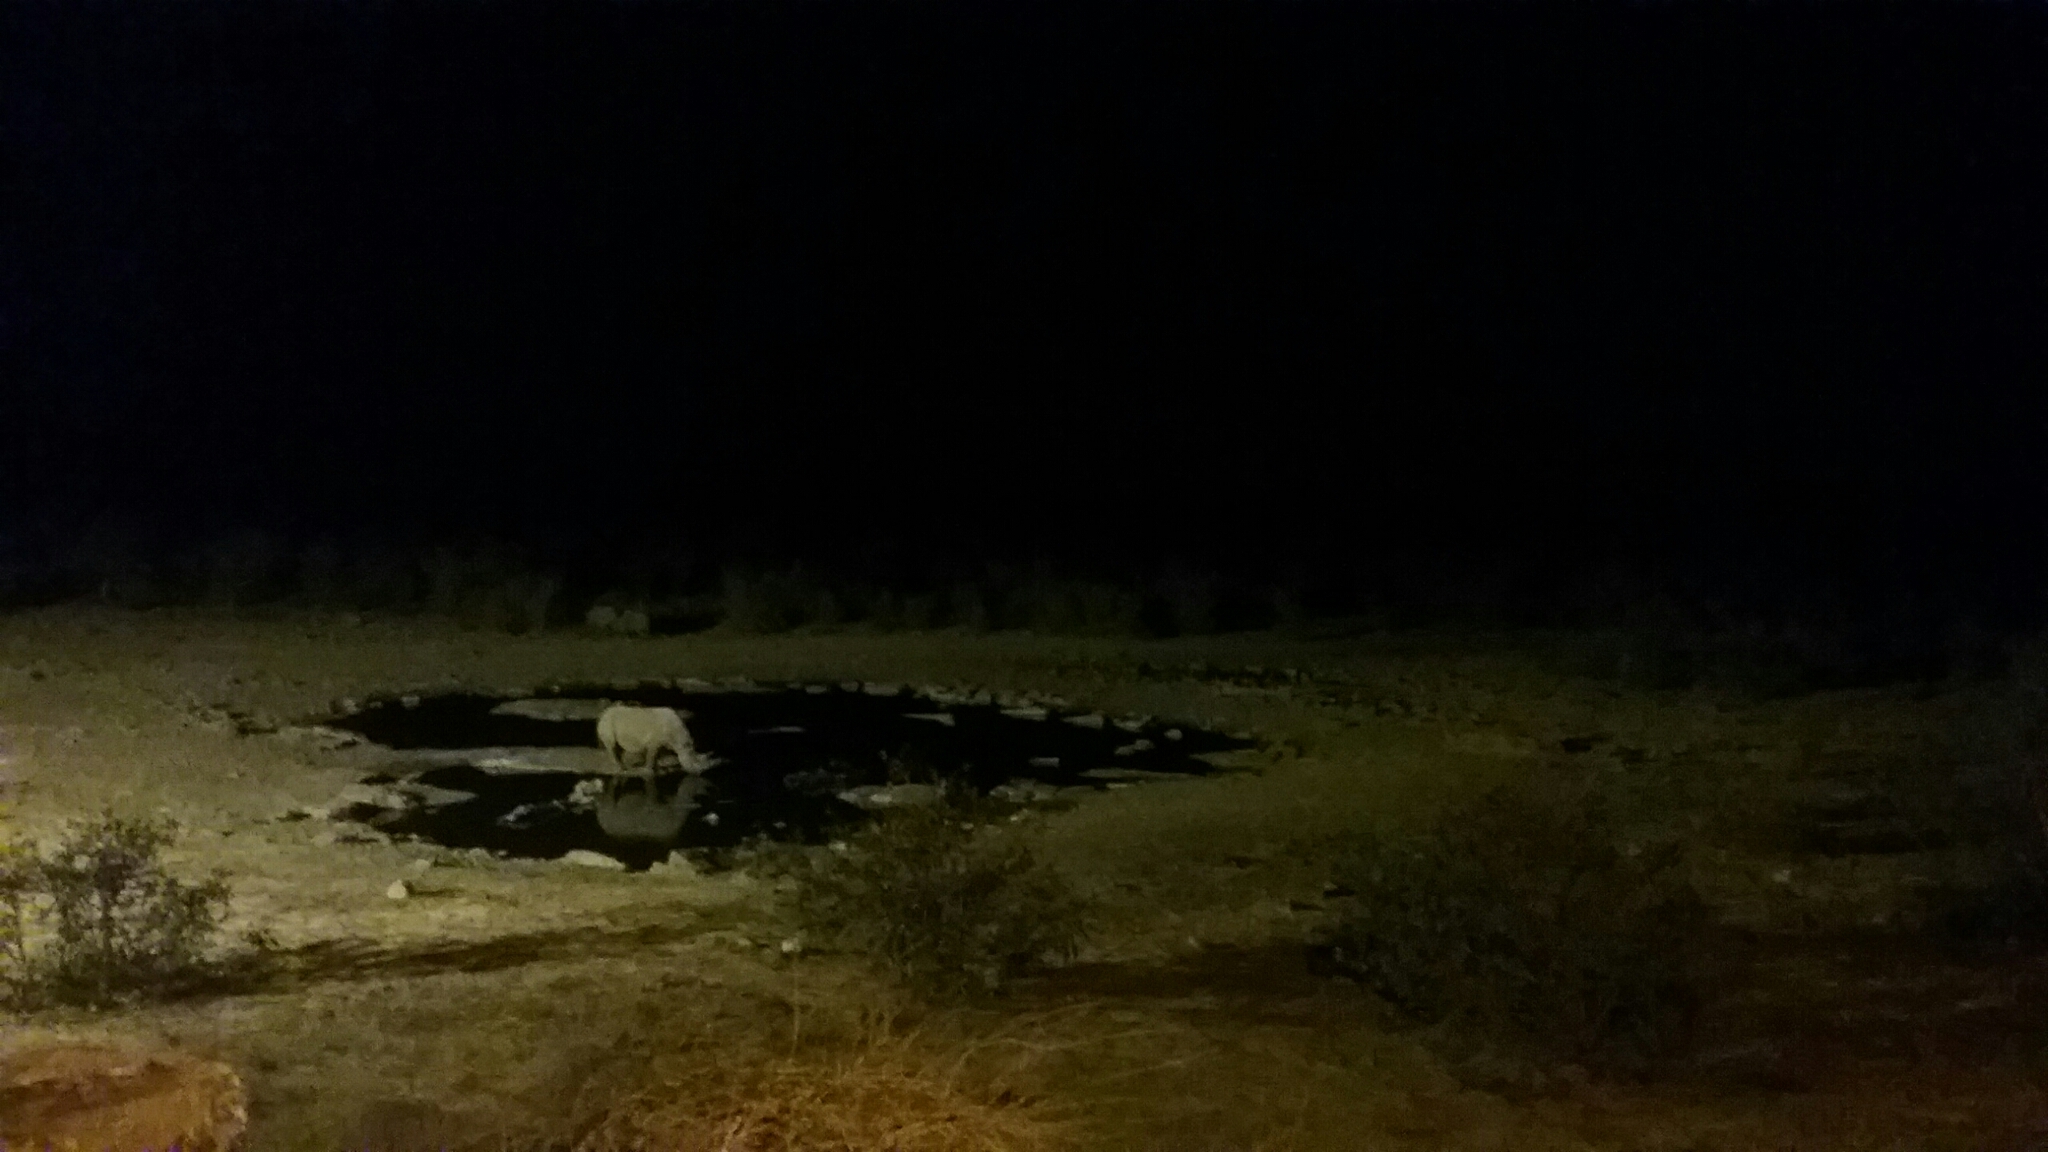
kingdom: Animalia
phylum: Chordata
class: Mammalia
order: Perissodactyla
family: Rhinocerotidae
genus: Diceros
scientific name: Diceros bicornis
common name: Black rhinoceros
